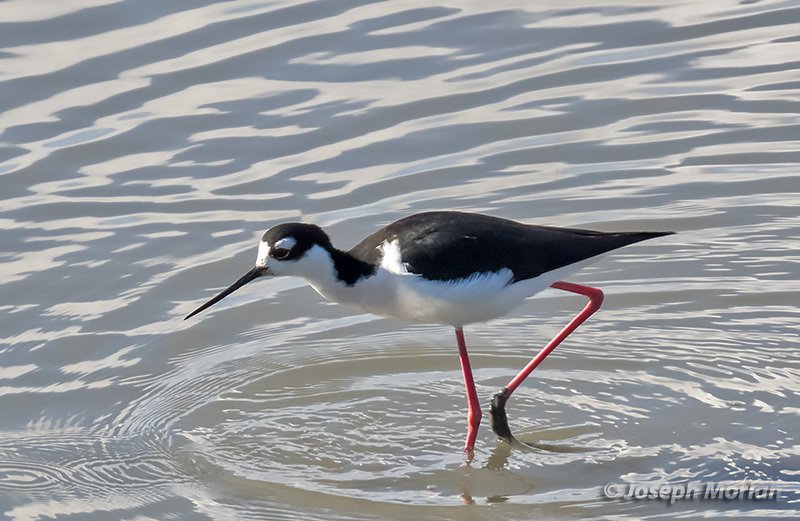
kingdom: Animalia
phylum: Chordata
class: Aves
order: Charadriiformes
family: Recurvirostridae
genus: Himantopus
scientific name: Himantopus mexicanus
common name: Black-necked stilt
